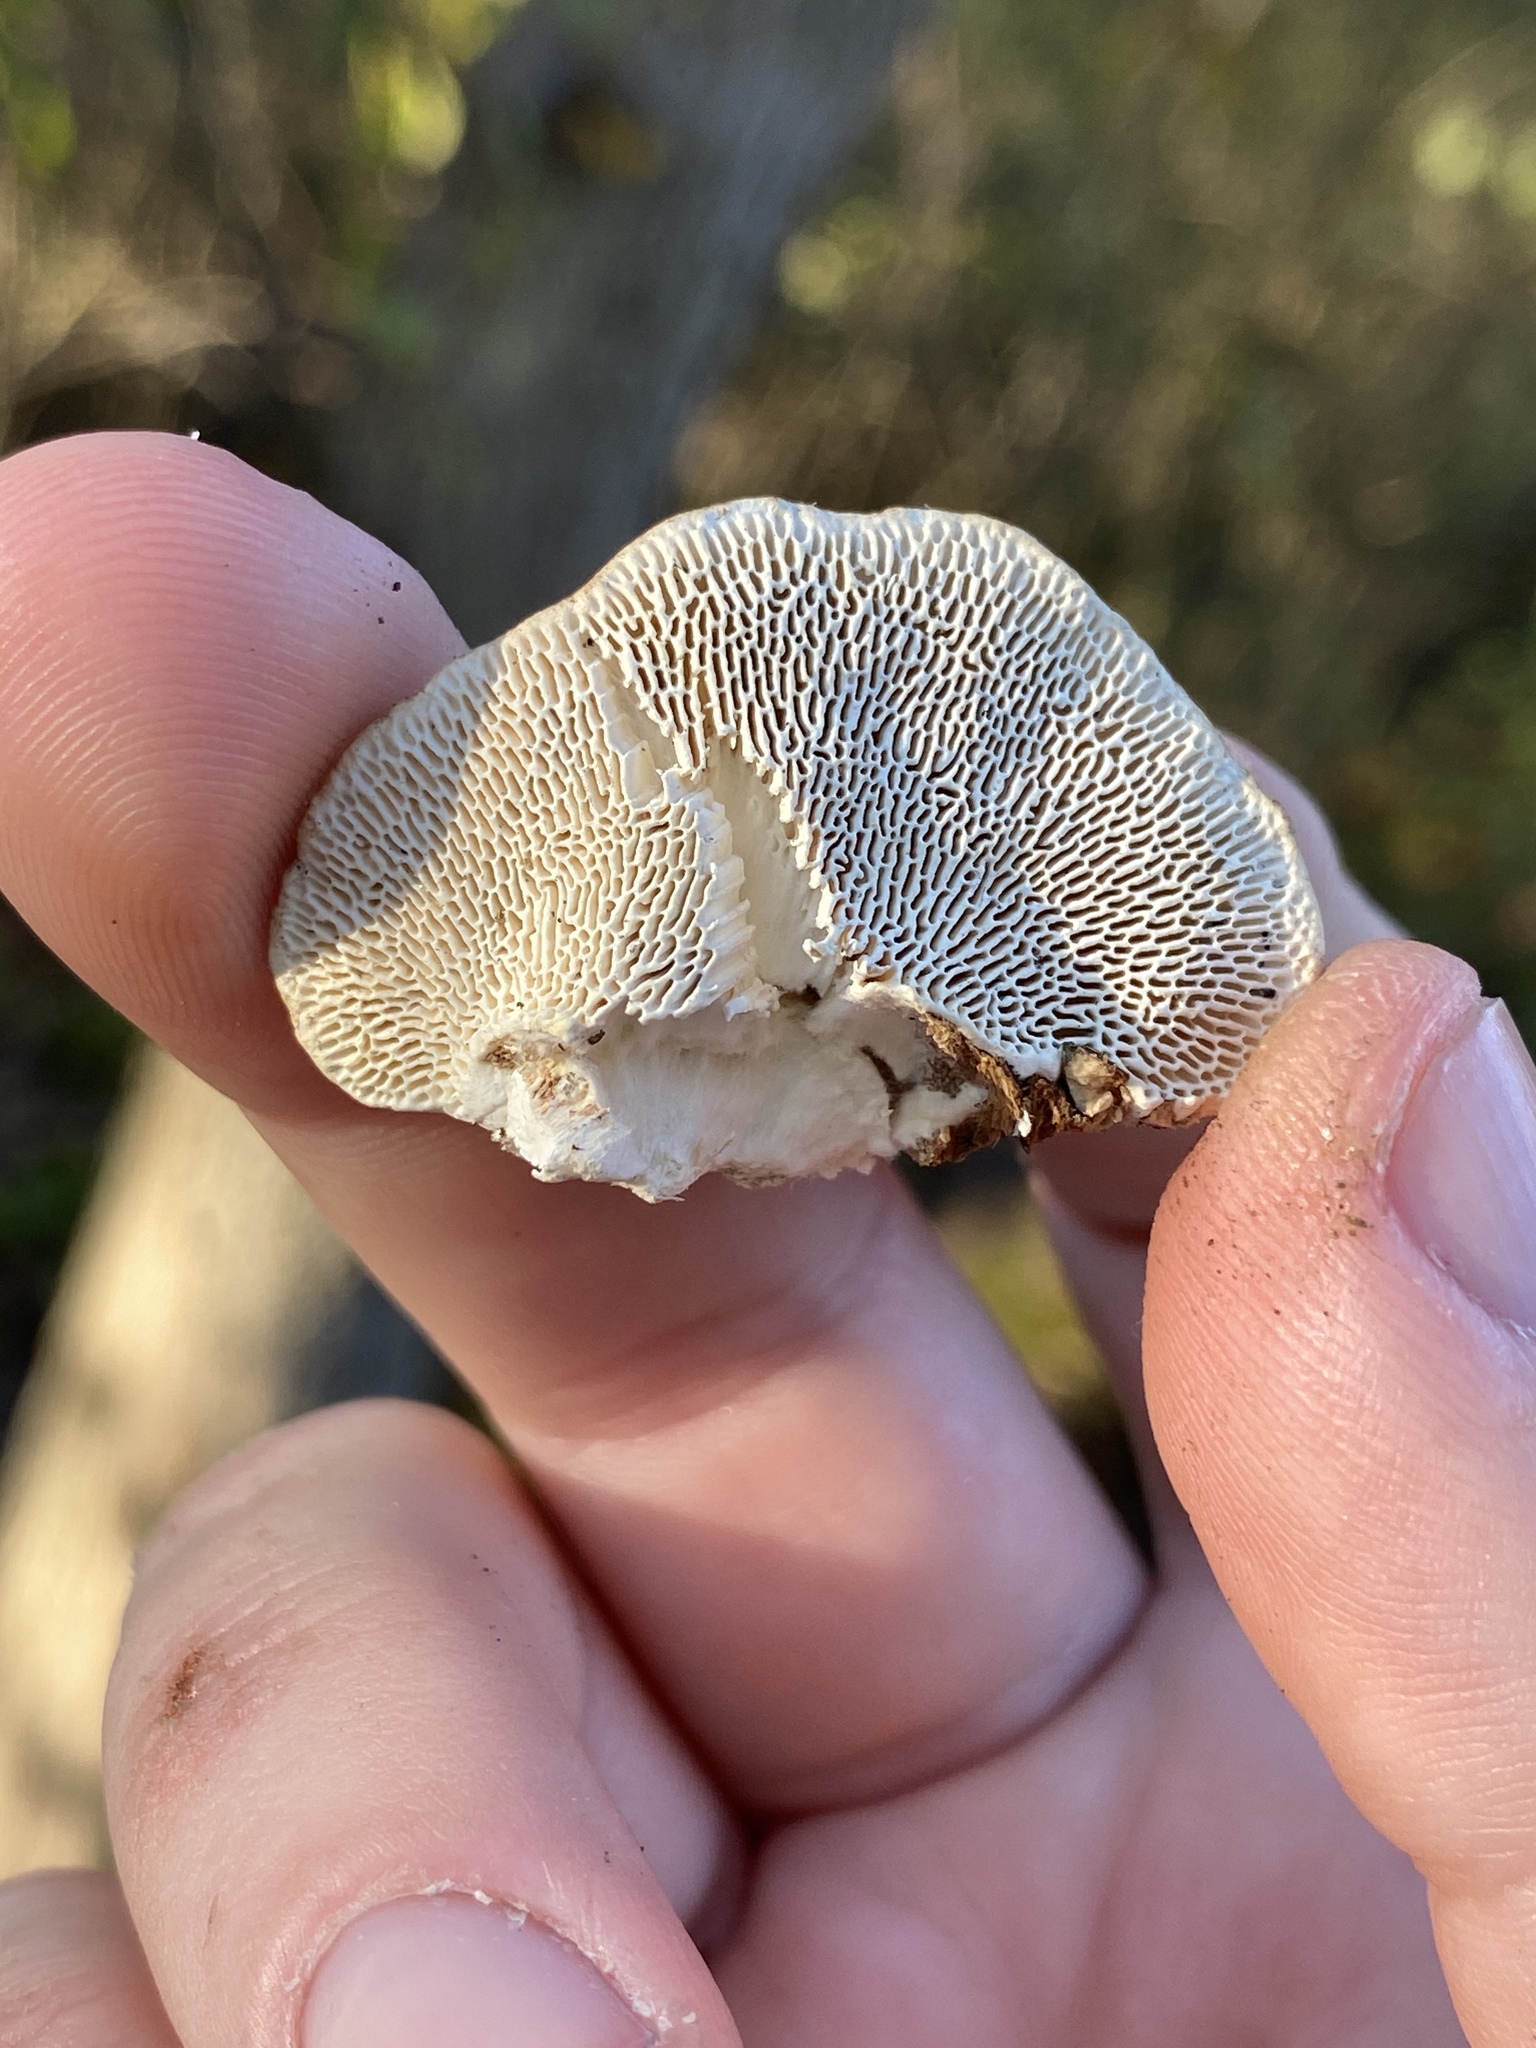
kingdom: Fungi
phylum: Basidiomycota
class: Agaricomycetes
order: Polyporales
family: Polyporaceae
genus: Trametes
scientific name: Trametes gibbosa
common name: Lumpy bracket
